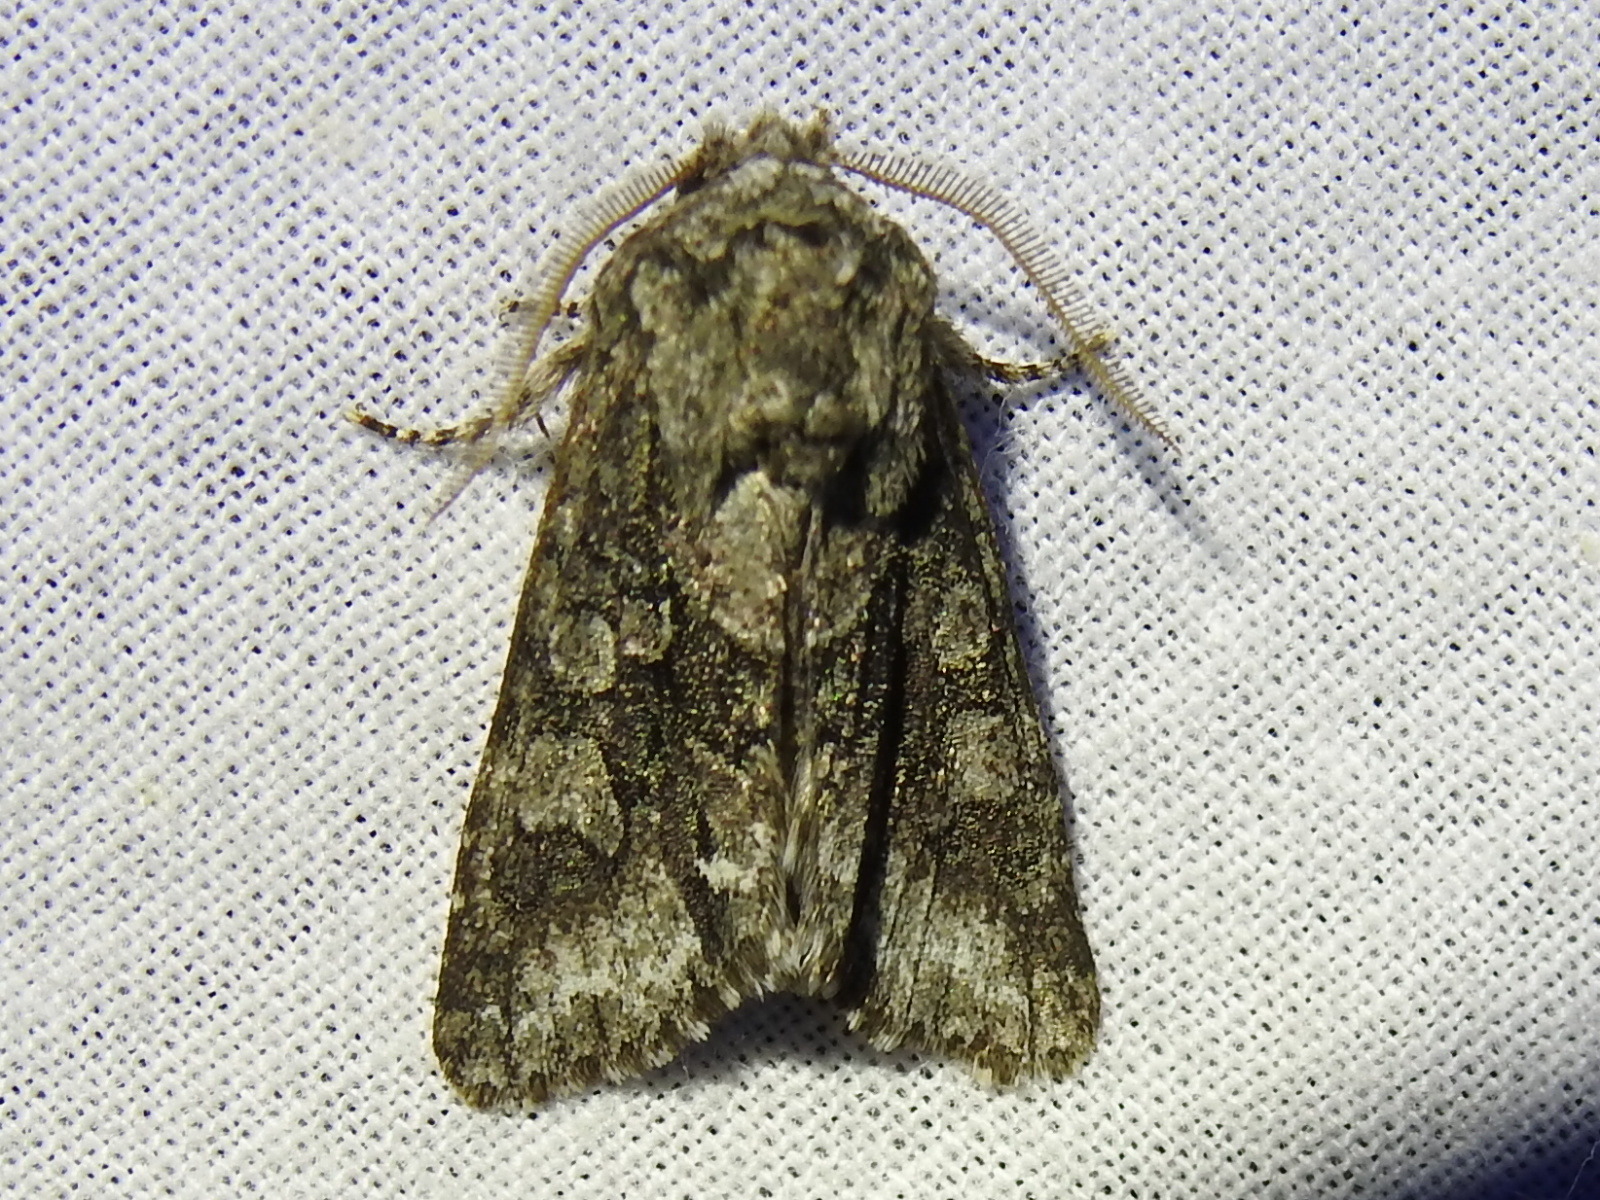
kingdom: Animalia
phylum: Arthropoda
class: Insecta
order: Lepidoptera
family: Noctuidae
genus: Psaphida
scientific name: Psaphida resumens
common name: Figure-eight sallow
